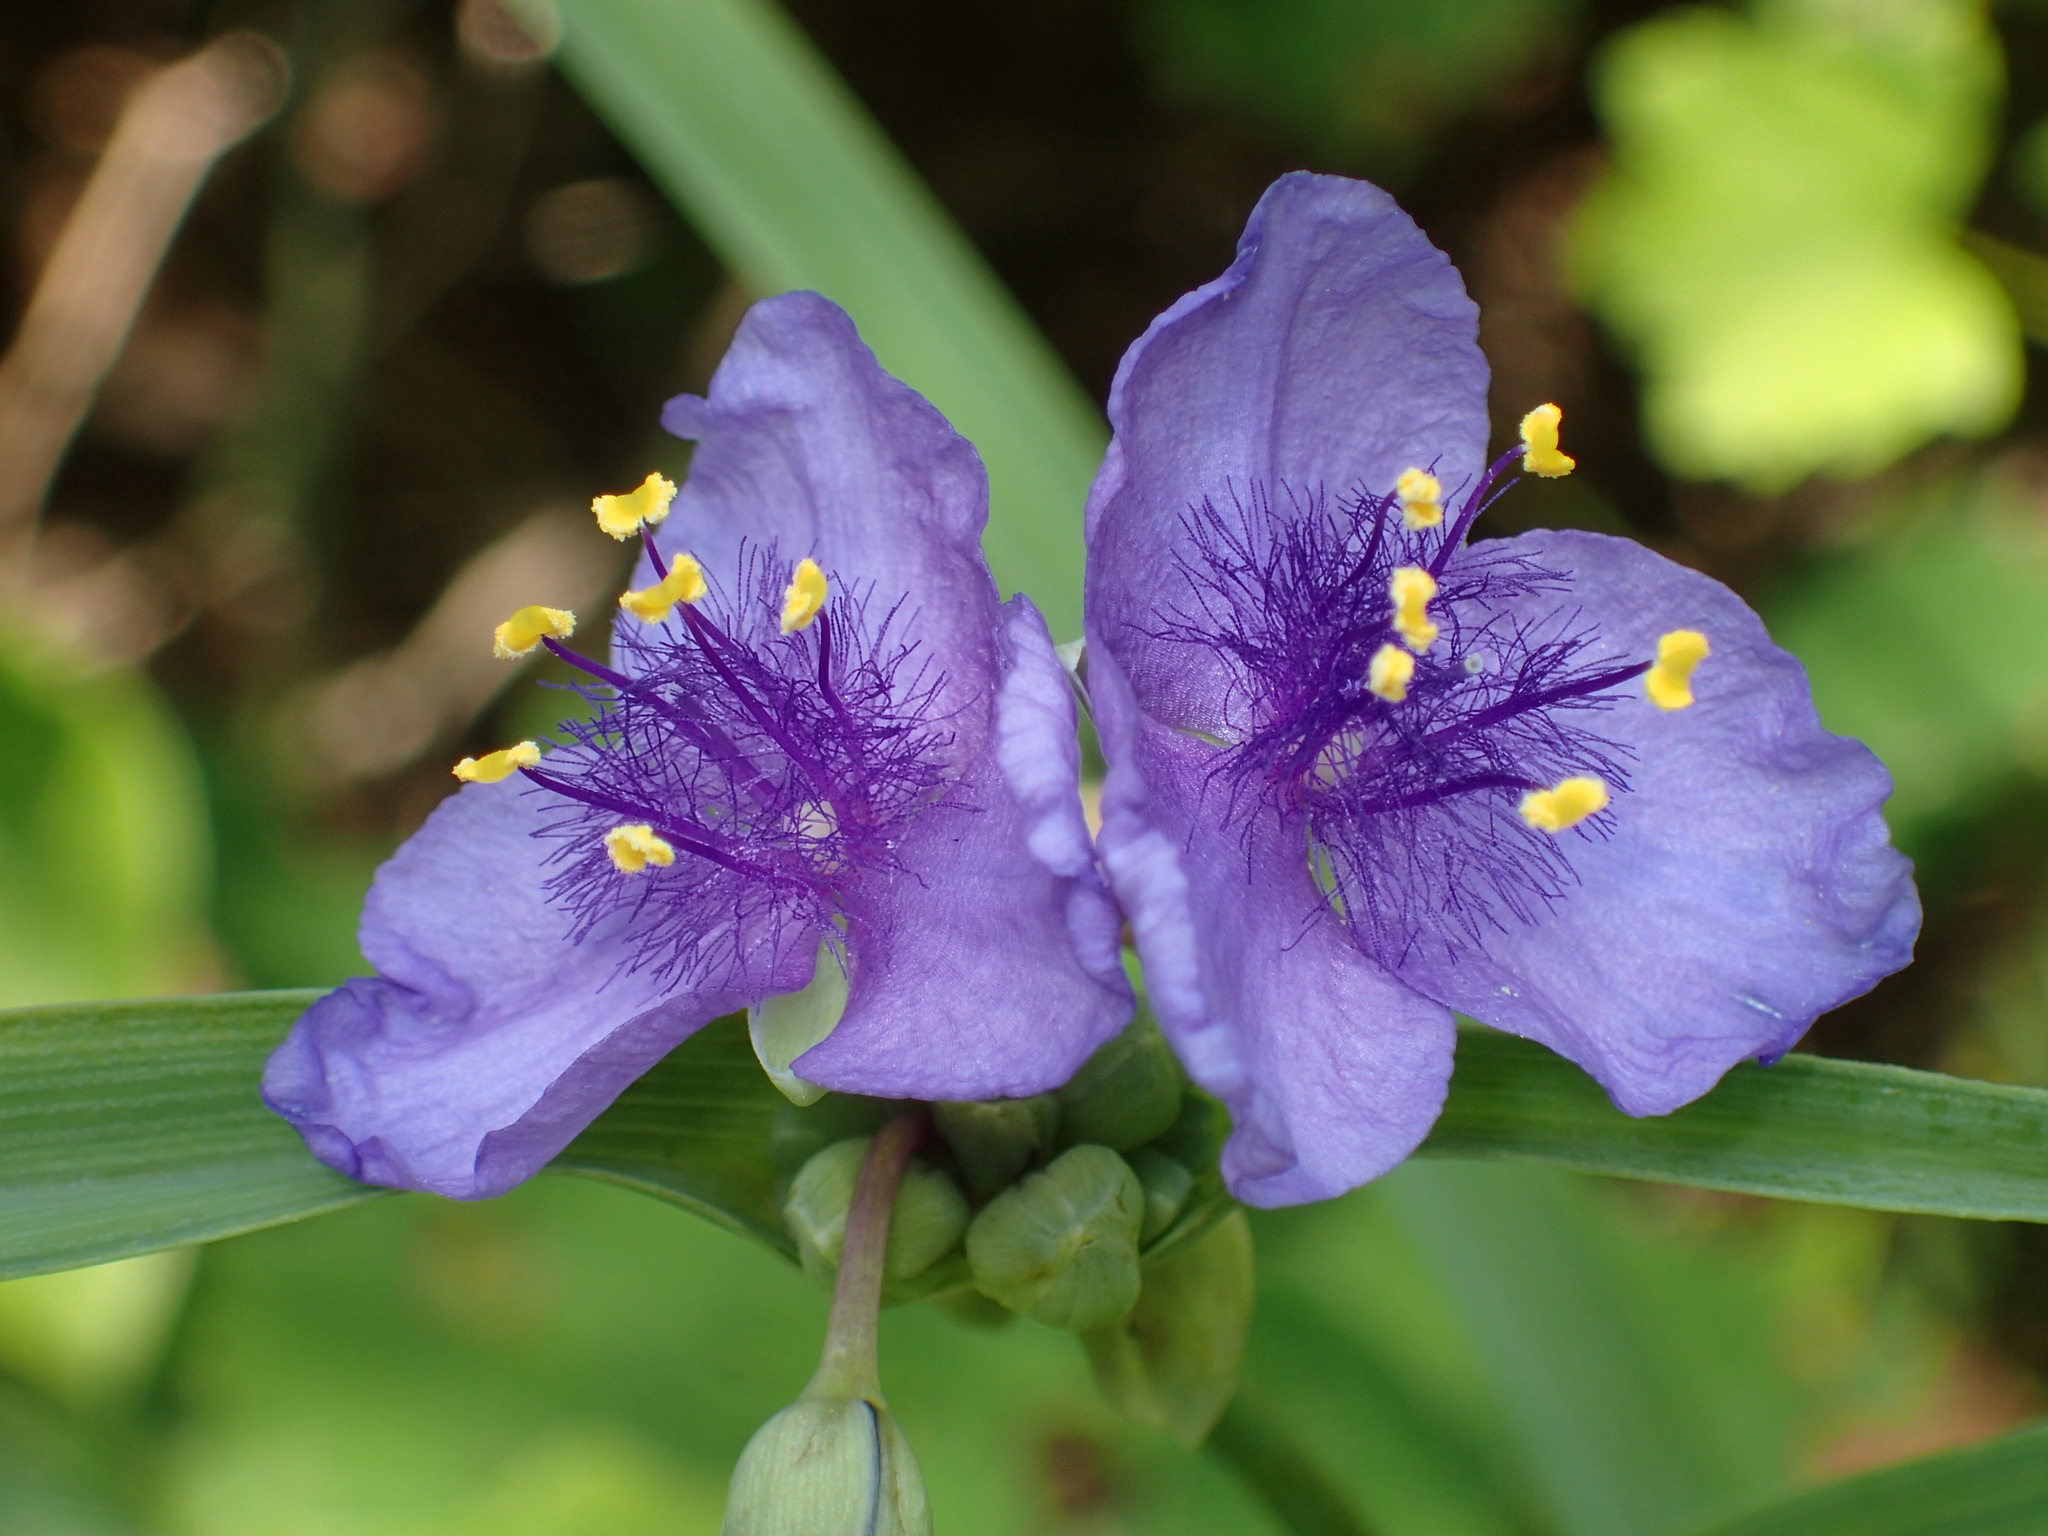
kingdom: Plantae
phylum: Tracheophyta
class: Liliopsida
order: Commelinales
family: Commelinaceae
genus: Tradescantia
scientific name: Tradescantia virginiana
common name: Spiderwort
